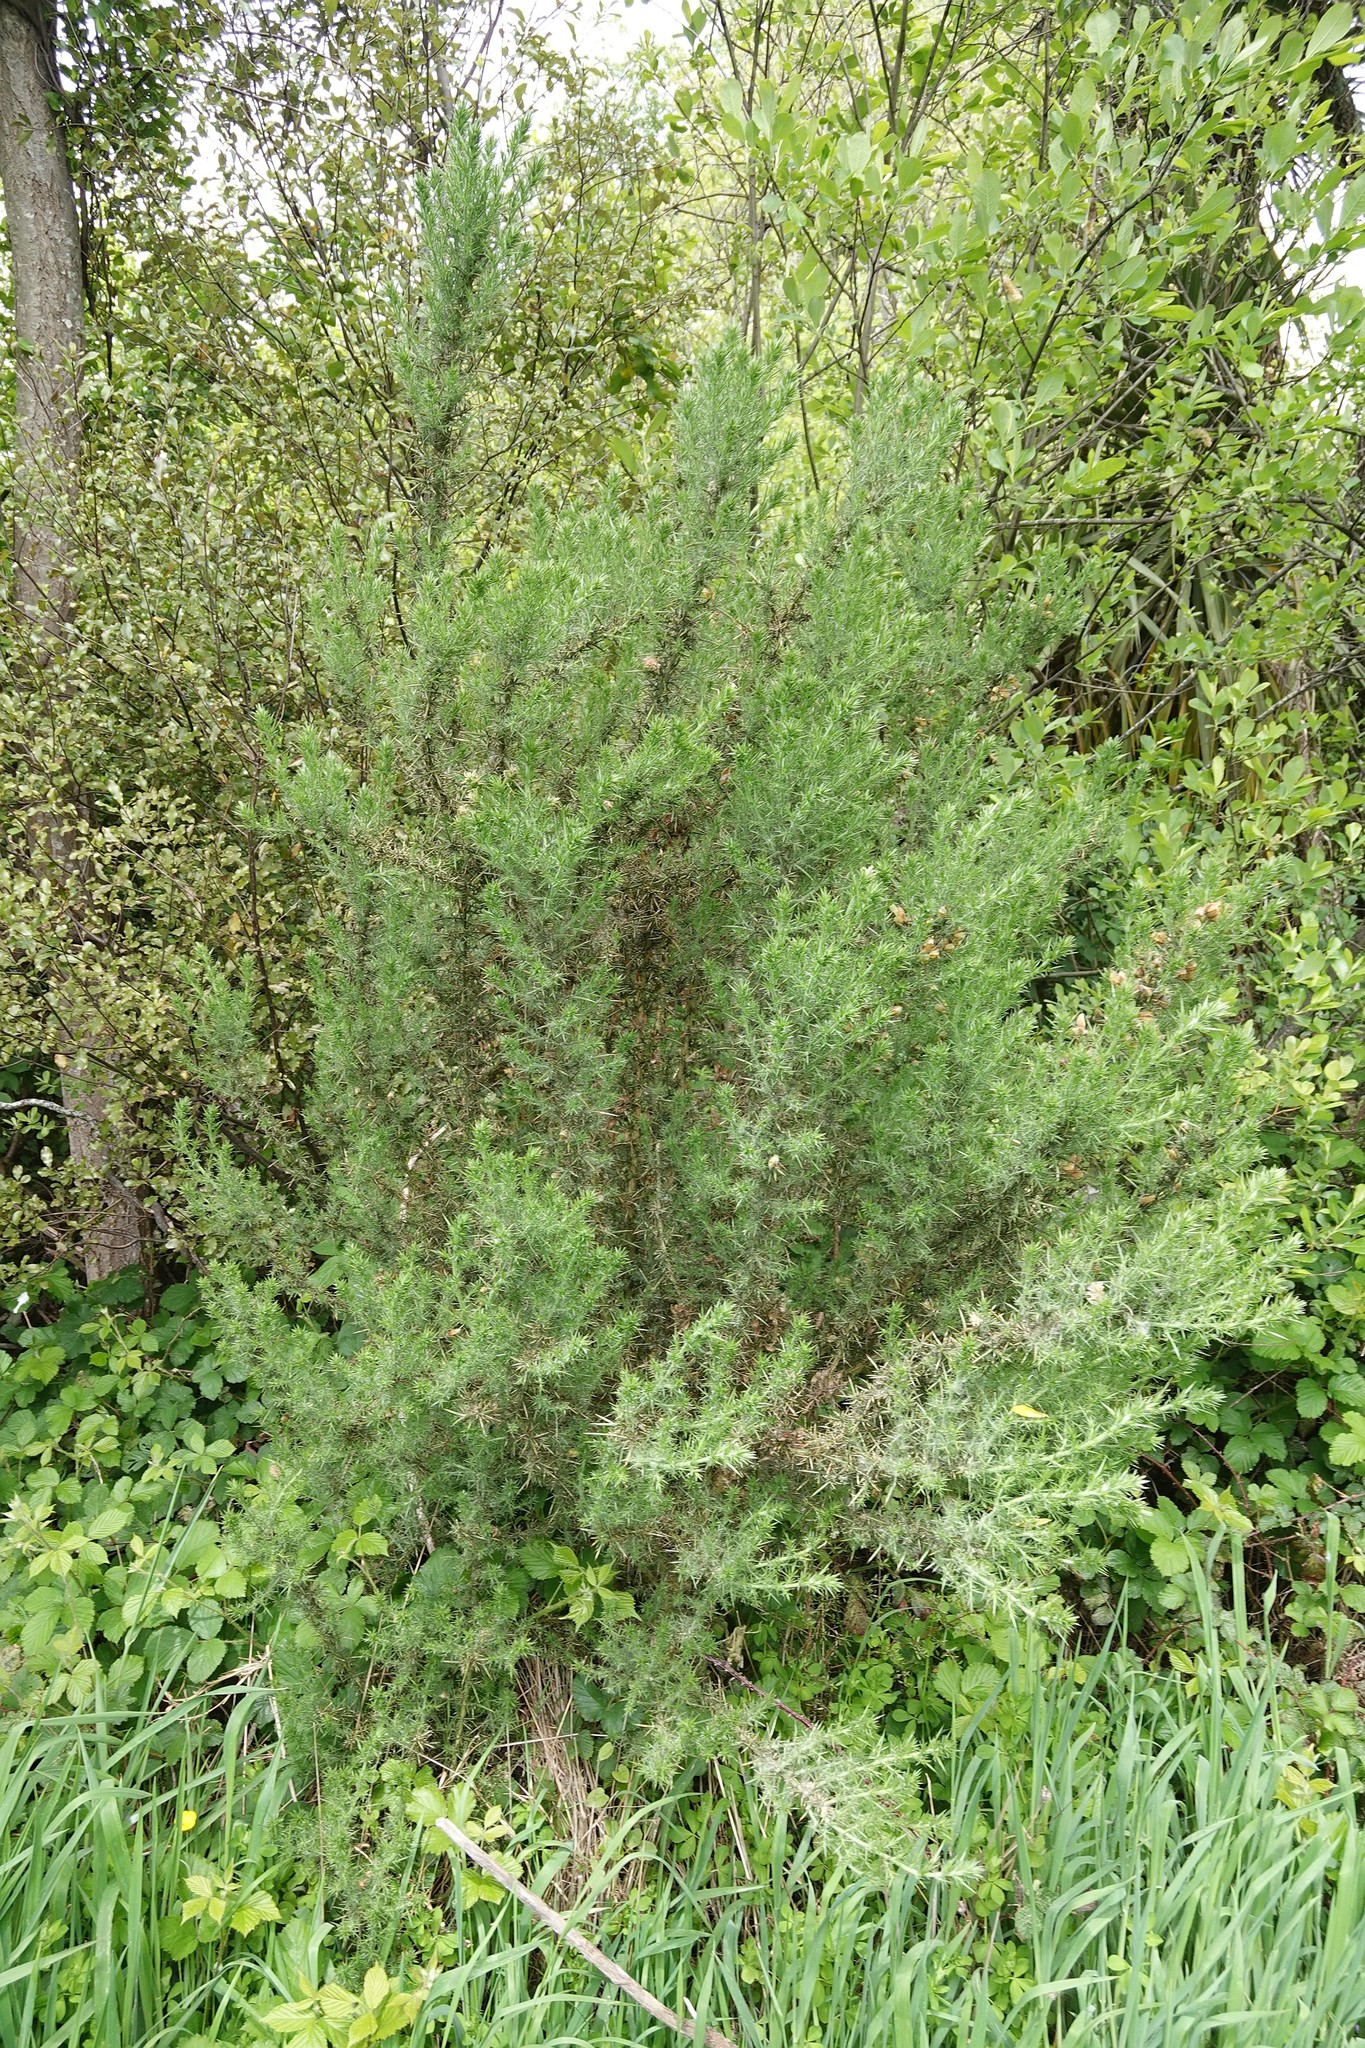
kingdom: Plantae
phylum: Tracheophyta
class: Magnoliopsida
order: Fabales
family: Fabaceae
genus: Ulex
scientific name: Ulex europaeus
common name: Common gorse
